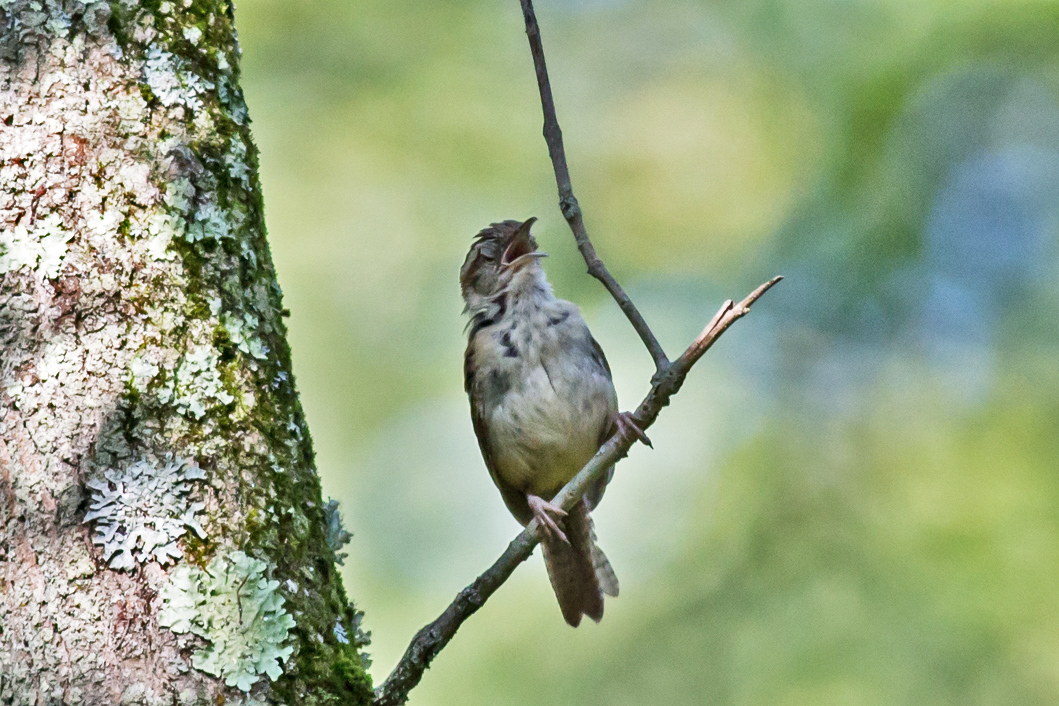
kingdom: Animalia
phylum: Chordata
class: Aves
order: Passeriformes
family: Troglodytidae
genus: Thryothorus
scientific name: Thryothorus ludovicianus
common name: Carolina wren
